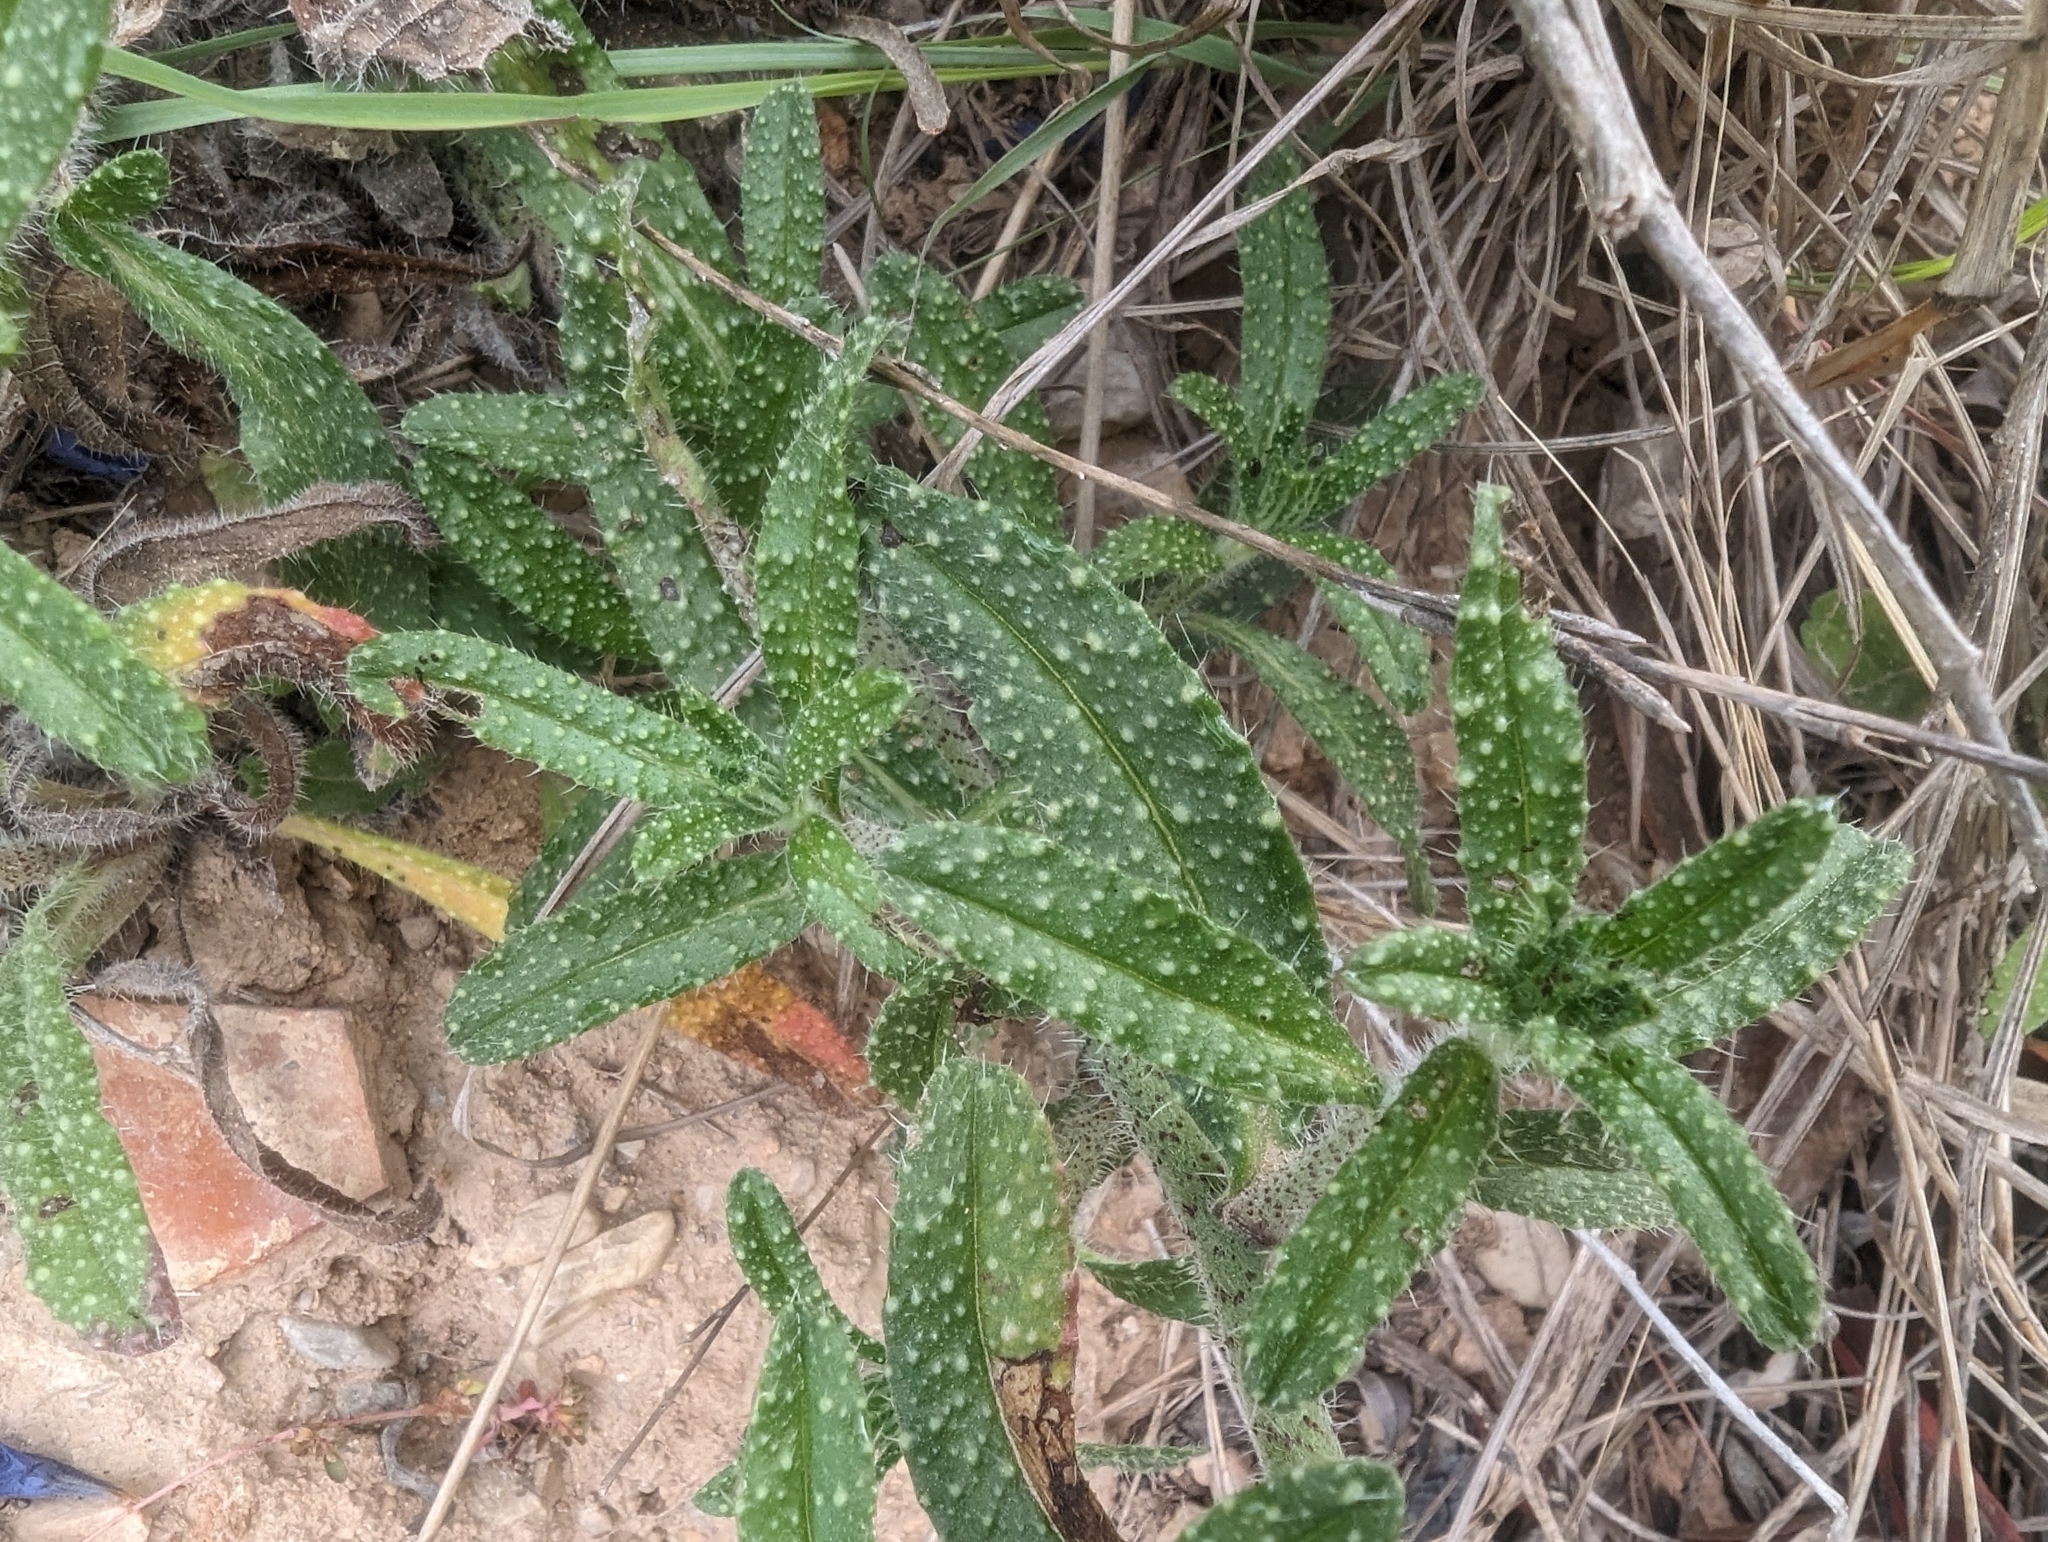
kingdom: Plantae
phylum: Tracheophyta
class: Magnoliopsida
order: Boraginales
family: Boraginaceae
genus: Echium
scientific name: Echium creticum
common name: Cretan viper's bugloss
